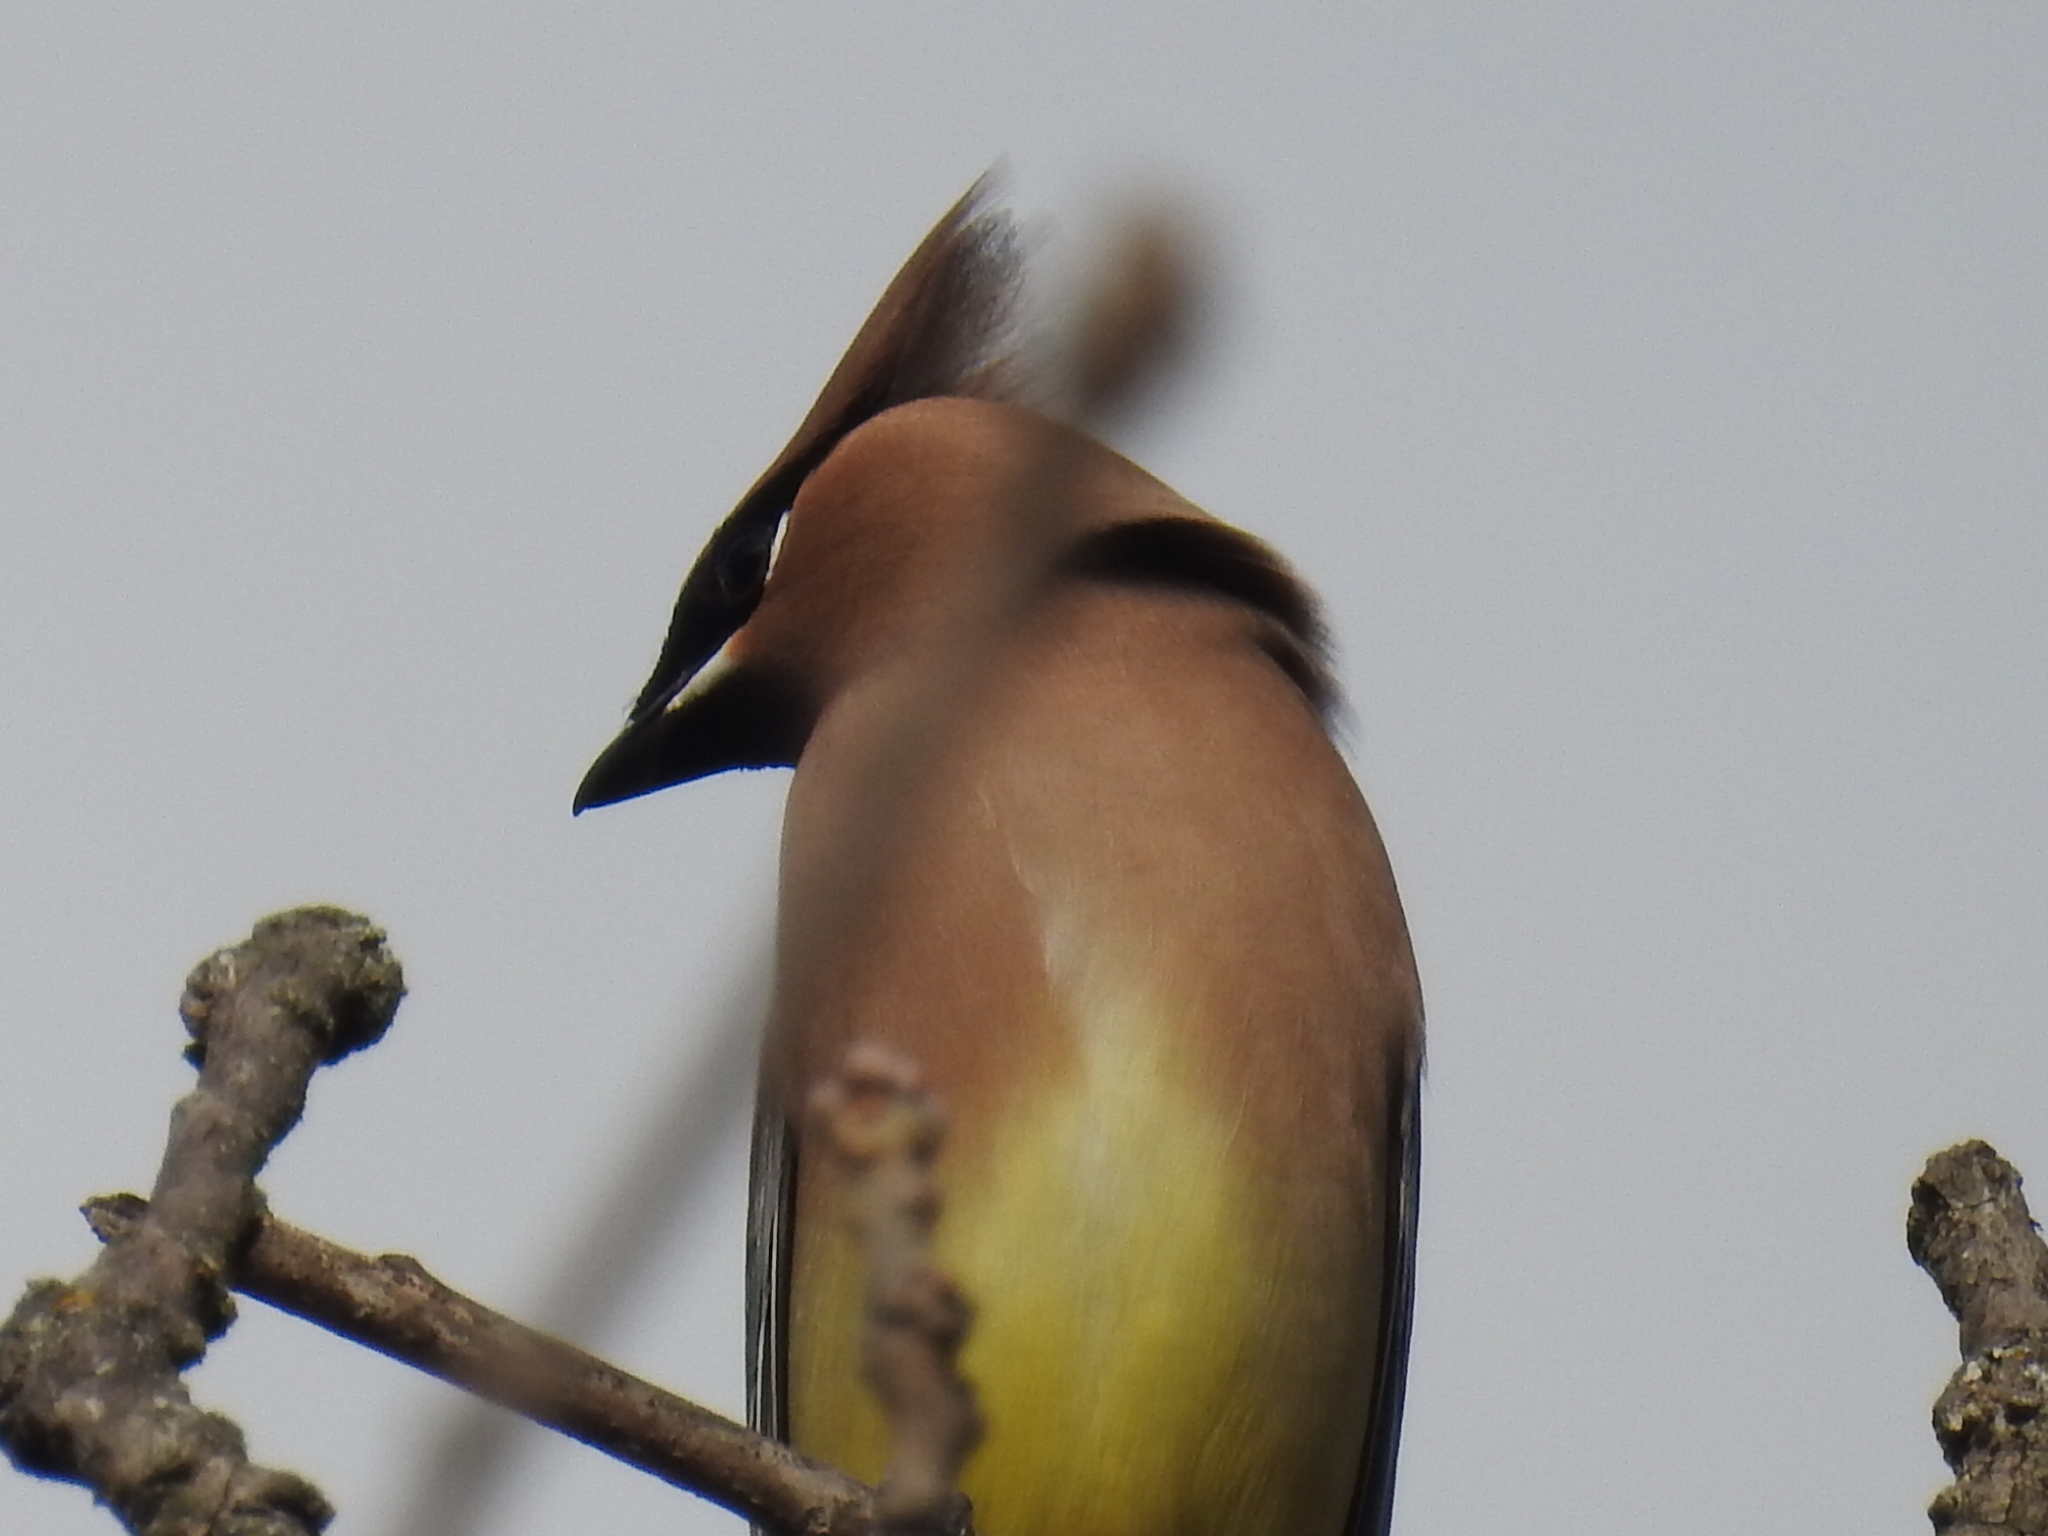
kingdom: Animalia
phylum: Chordata
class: Aves
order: Passeriformes
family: Bombycillidae
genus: Bombycilla
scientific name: Bombycilla cedrorum
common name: Cedar waxwing
